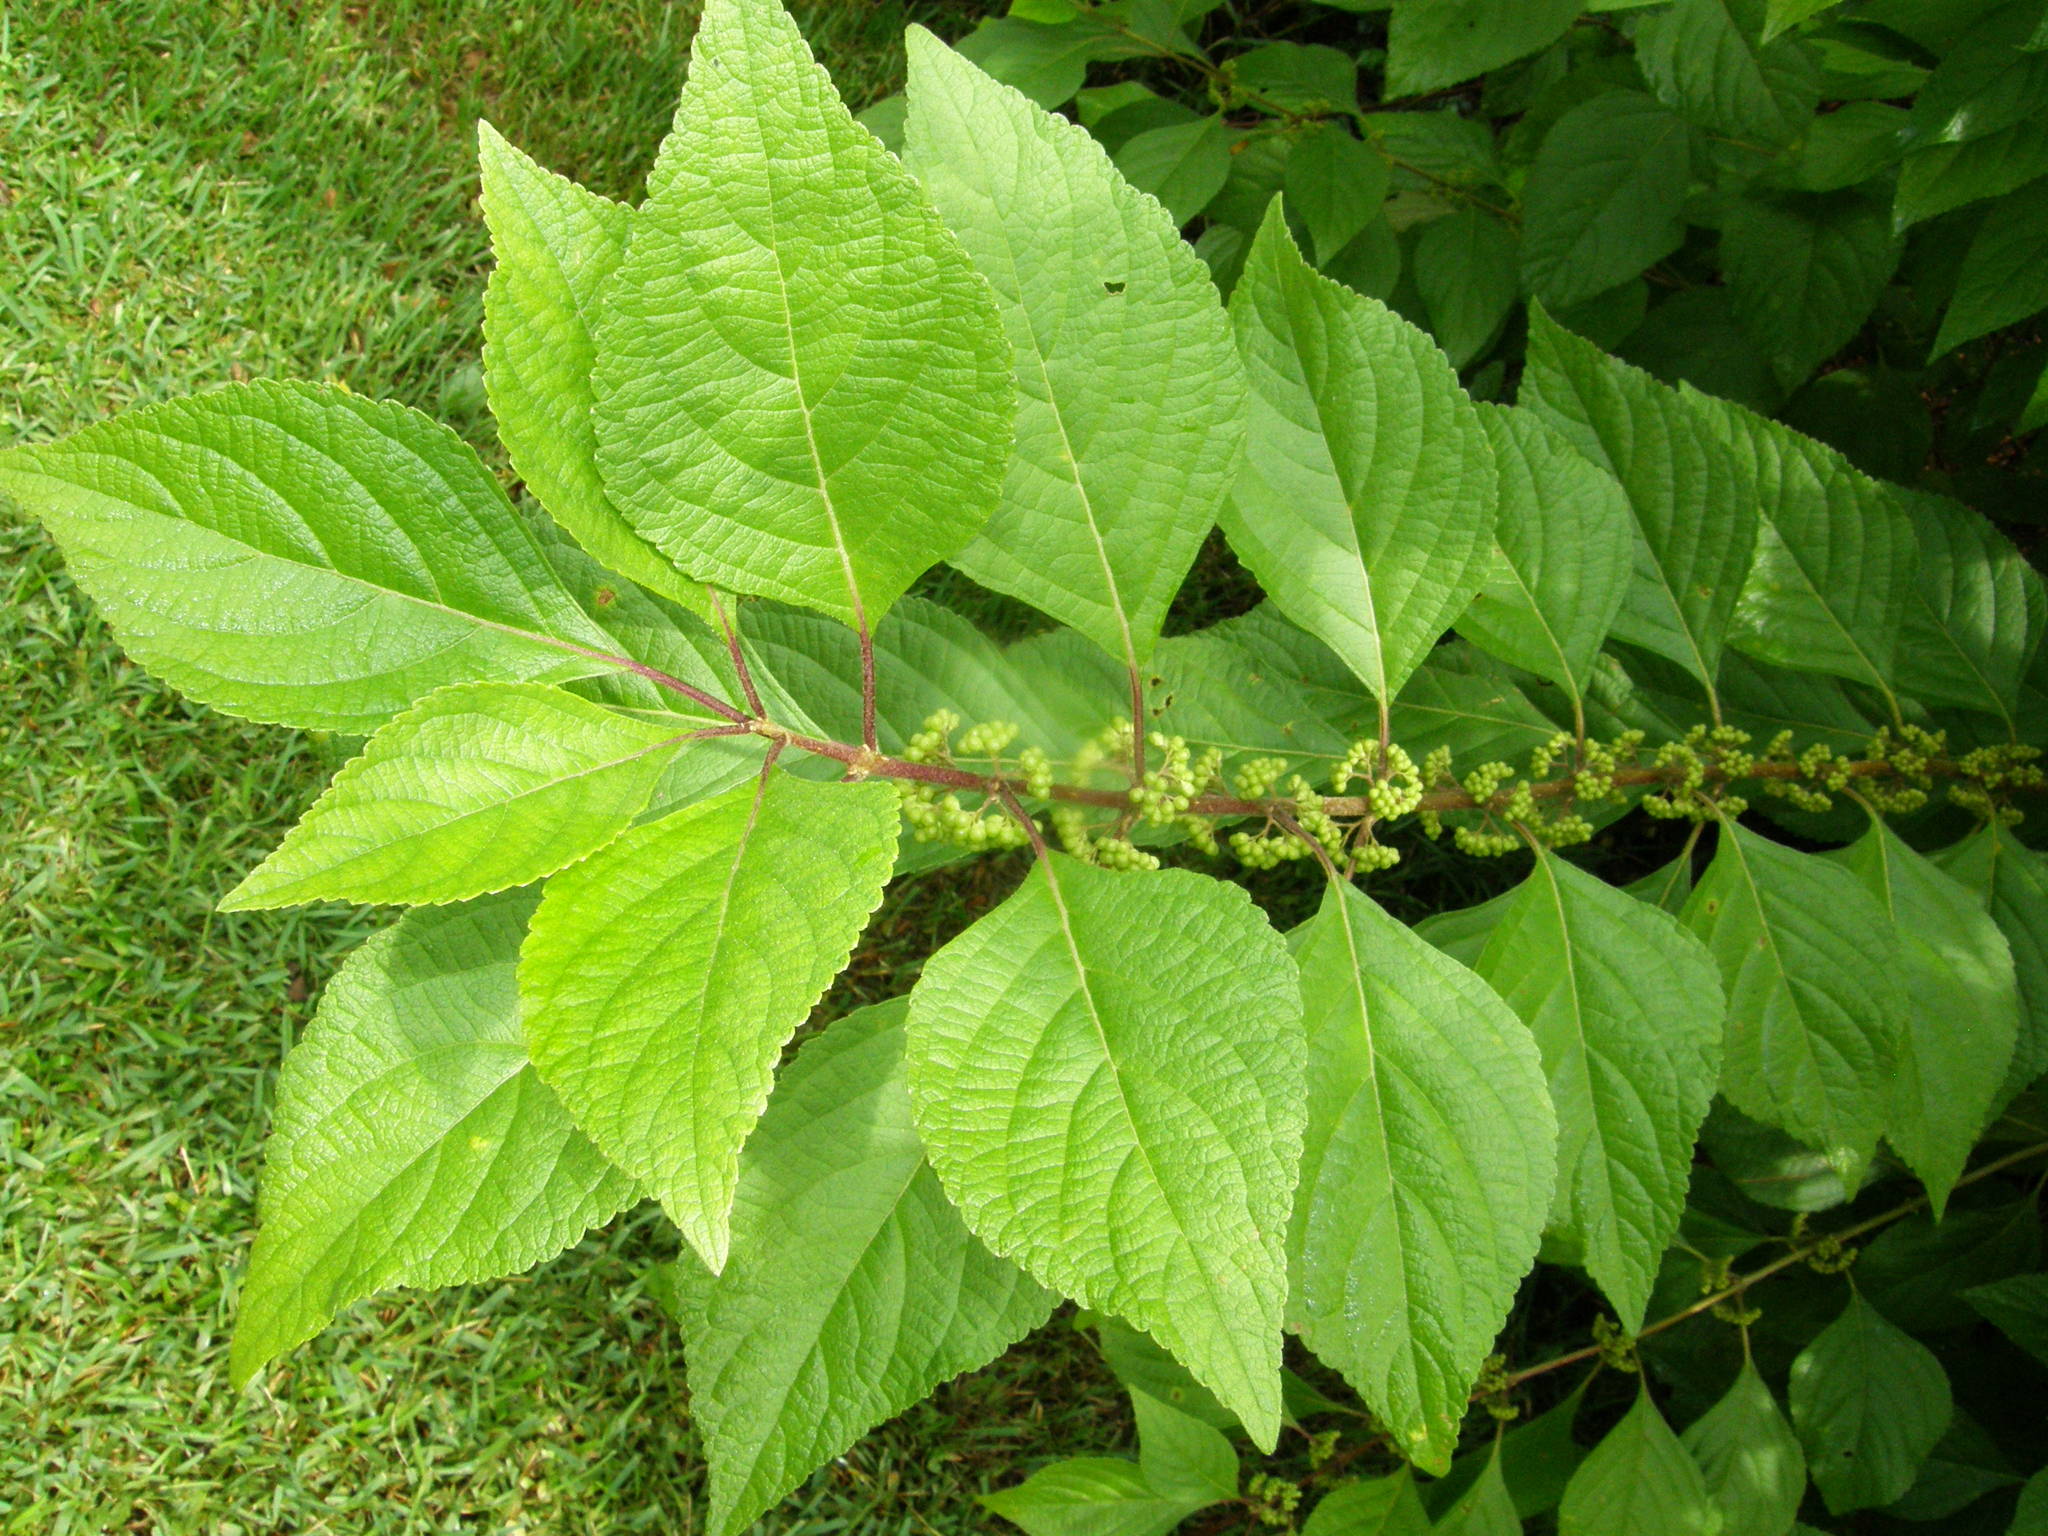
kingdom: Plantae
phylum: Tracheophyta
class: Magnoliopsida
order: Lamiales
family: Lamiaceae
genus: Callicarpa
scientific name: Callicarpa americana
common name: American beautyberry
